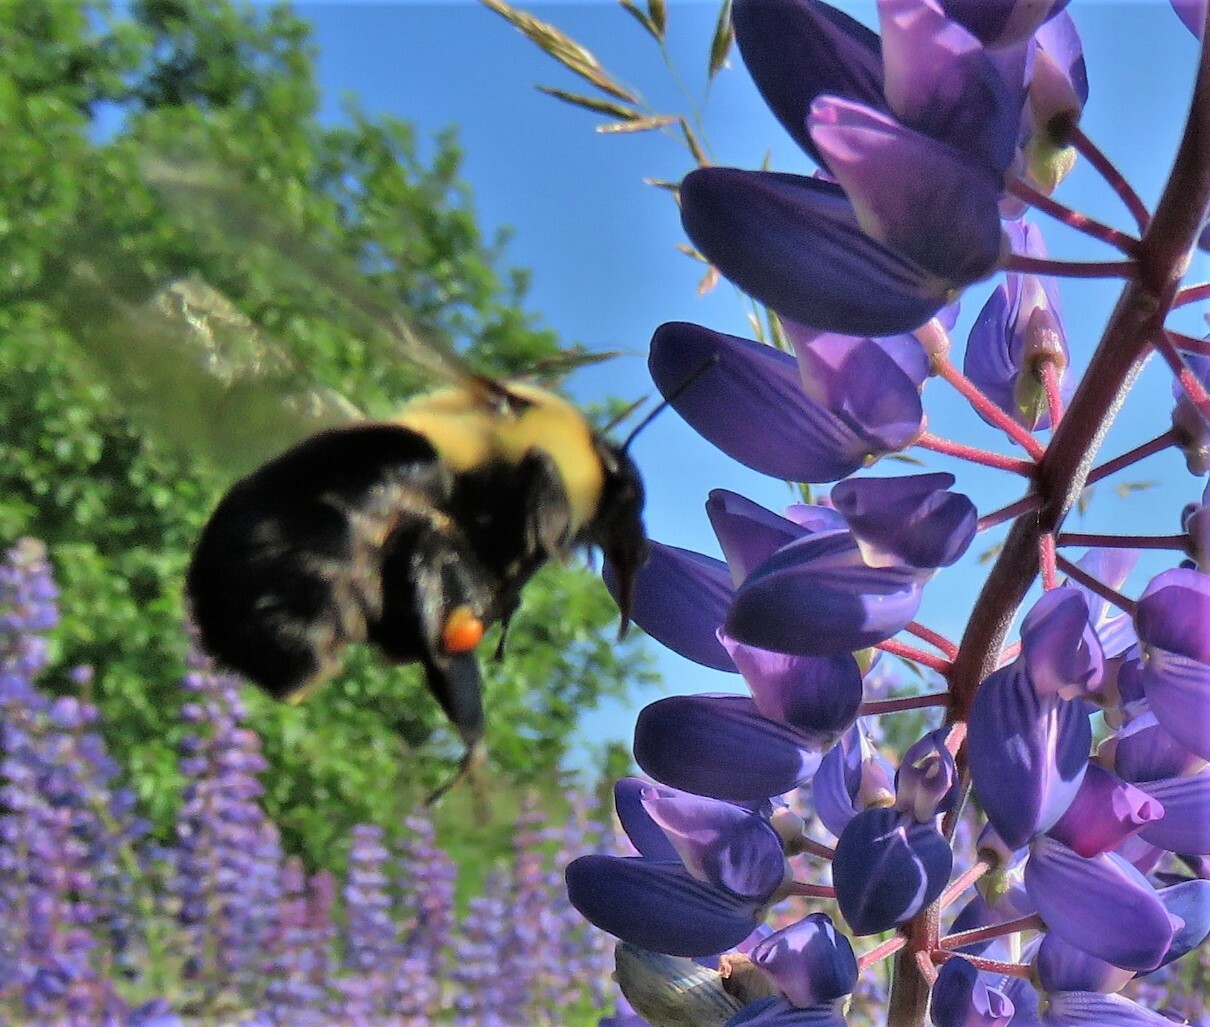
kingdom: Animalia
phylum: Arthropoda
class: Insecta
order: Hymenoptera
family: Apidae
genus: Bombus
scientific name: Bombus impatiens
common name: Common eastern bumble bee
